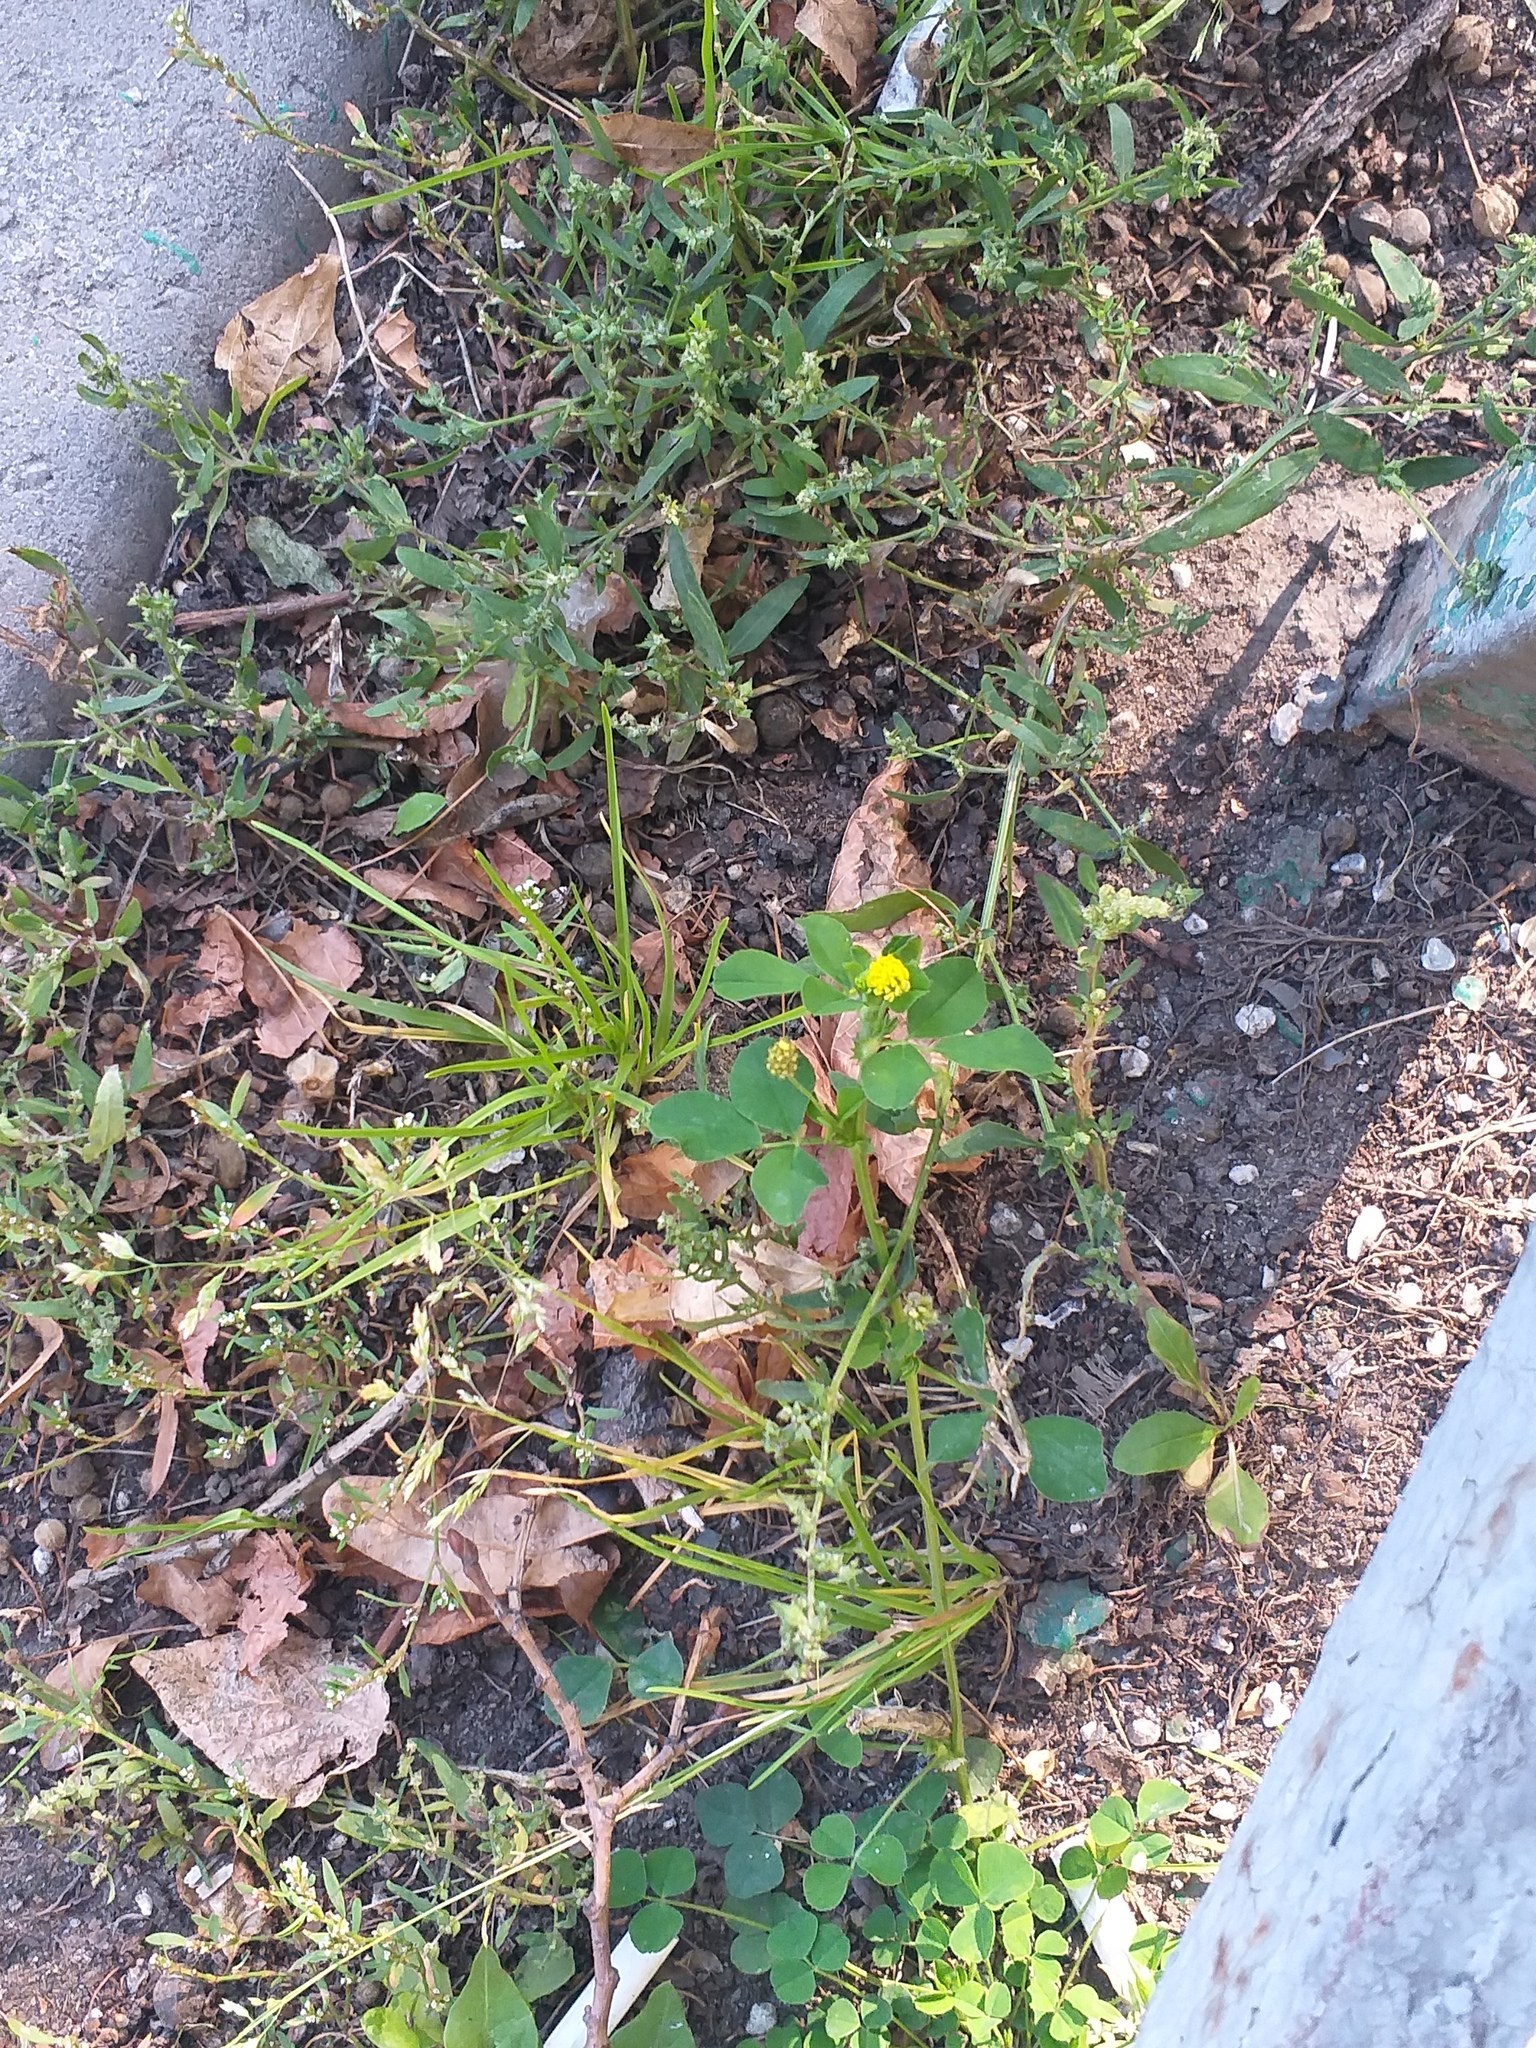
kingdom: Plantae
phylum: Tracheophyta
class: Magnoliopsida
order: Fabales
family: Fabaceae
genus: Medicago
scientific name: Medicago lupulina
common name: Black medick
